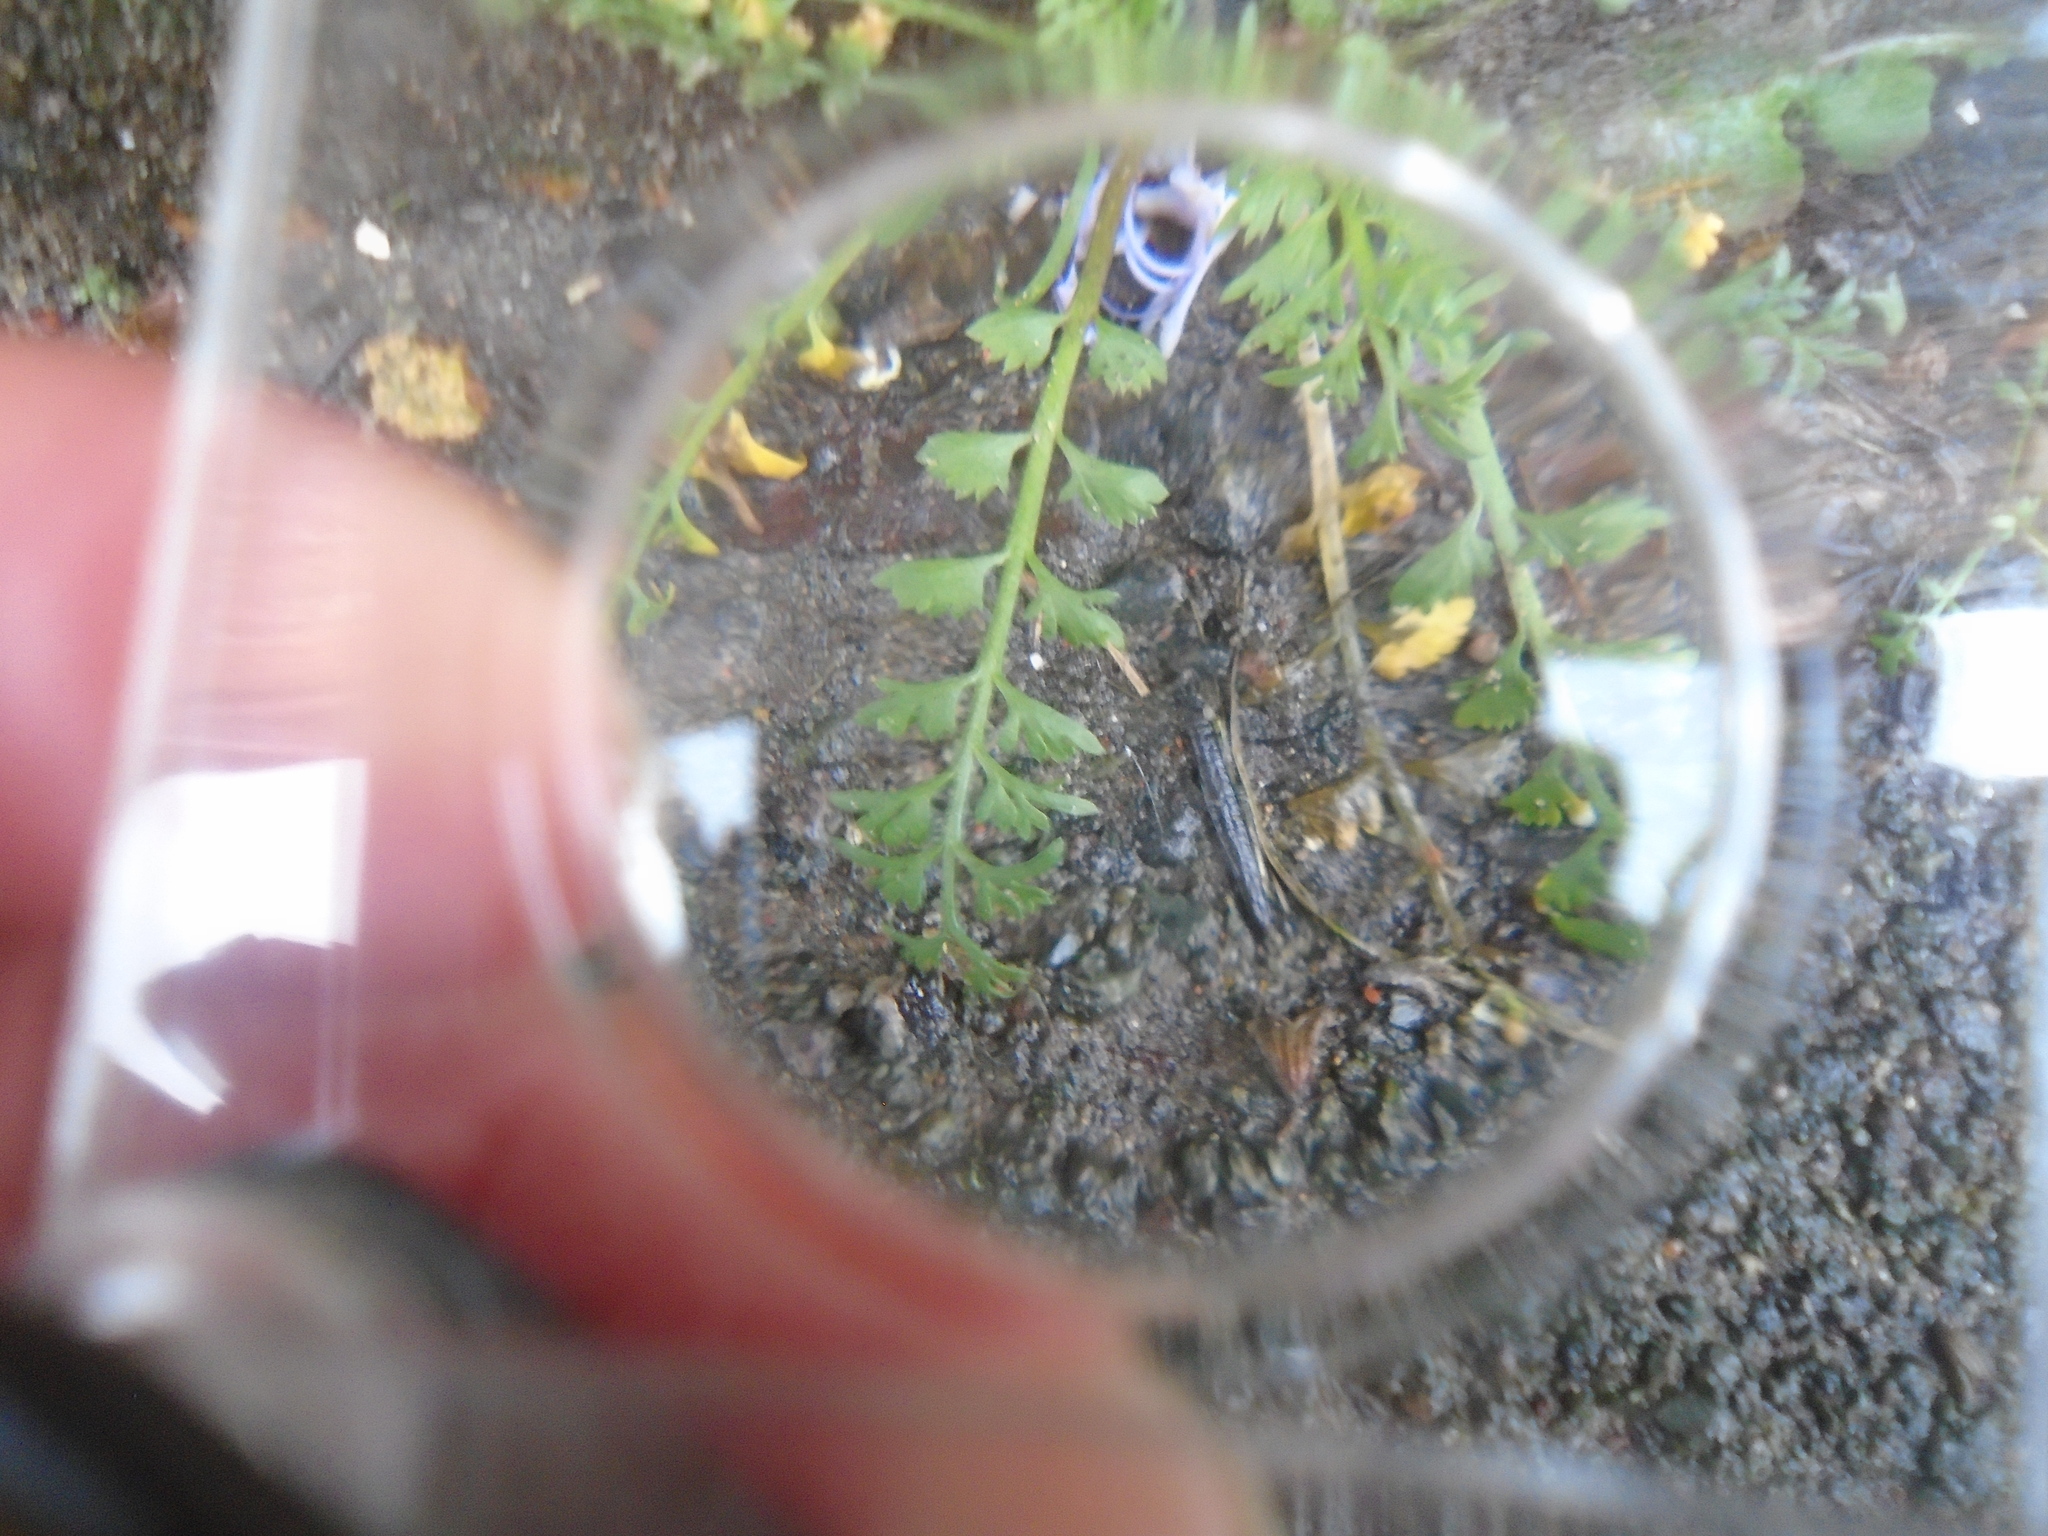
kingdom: Plantae
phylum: Tracheophyta
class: Magnoliopsida
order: Brassicales
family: Brassicaceae
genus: Lepidium
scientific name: Lepidium didymum
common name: Lesser swinecress
